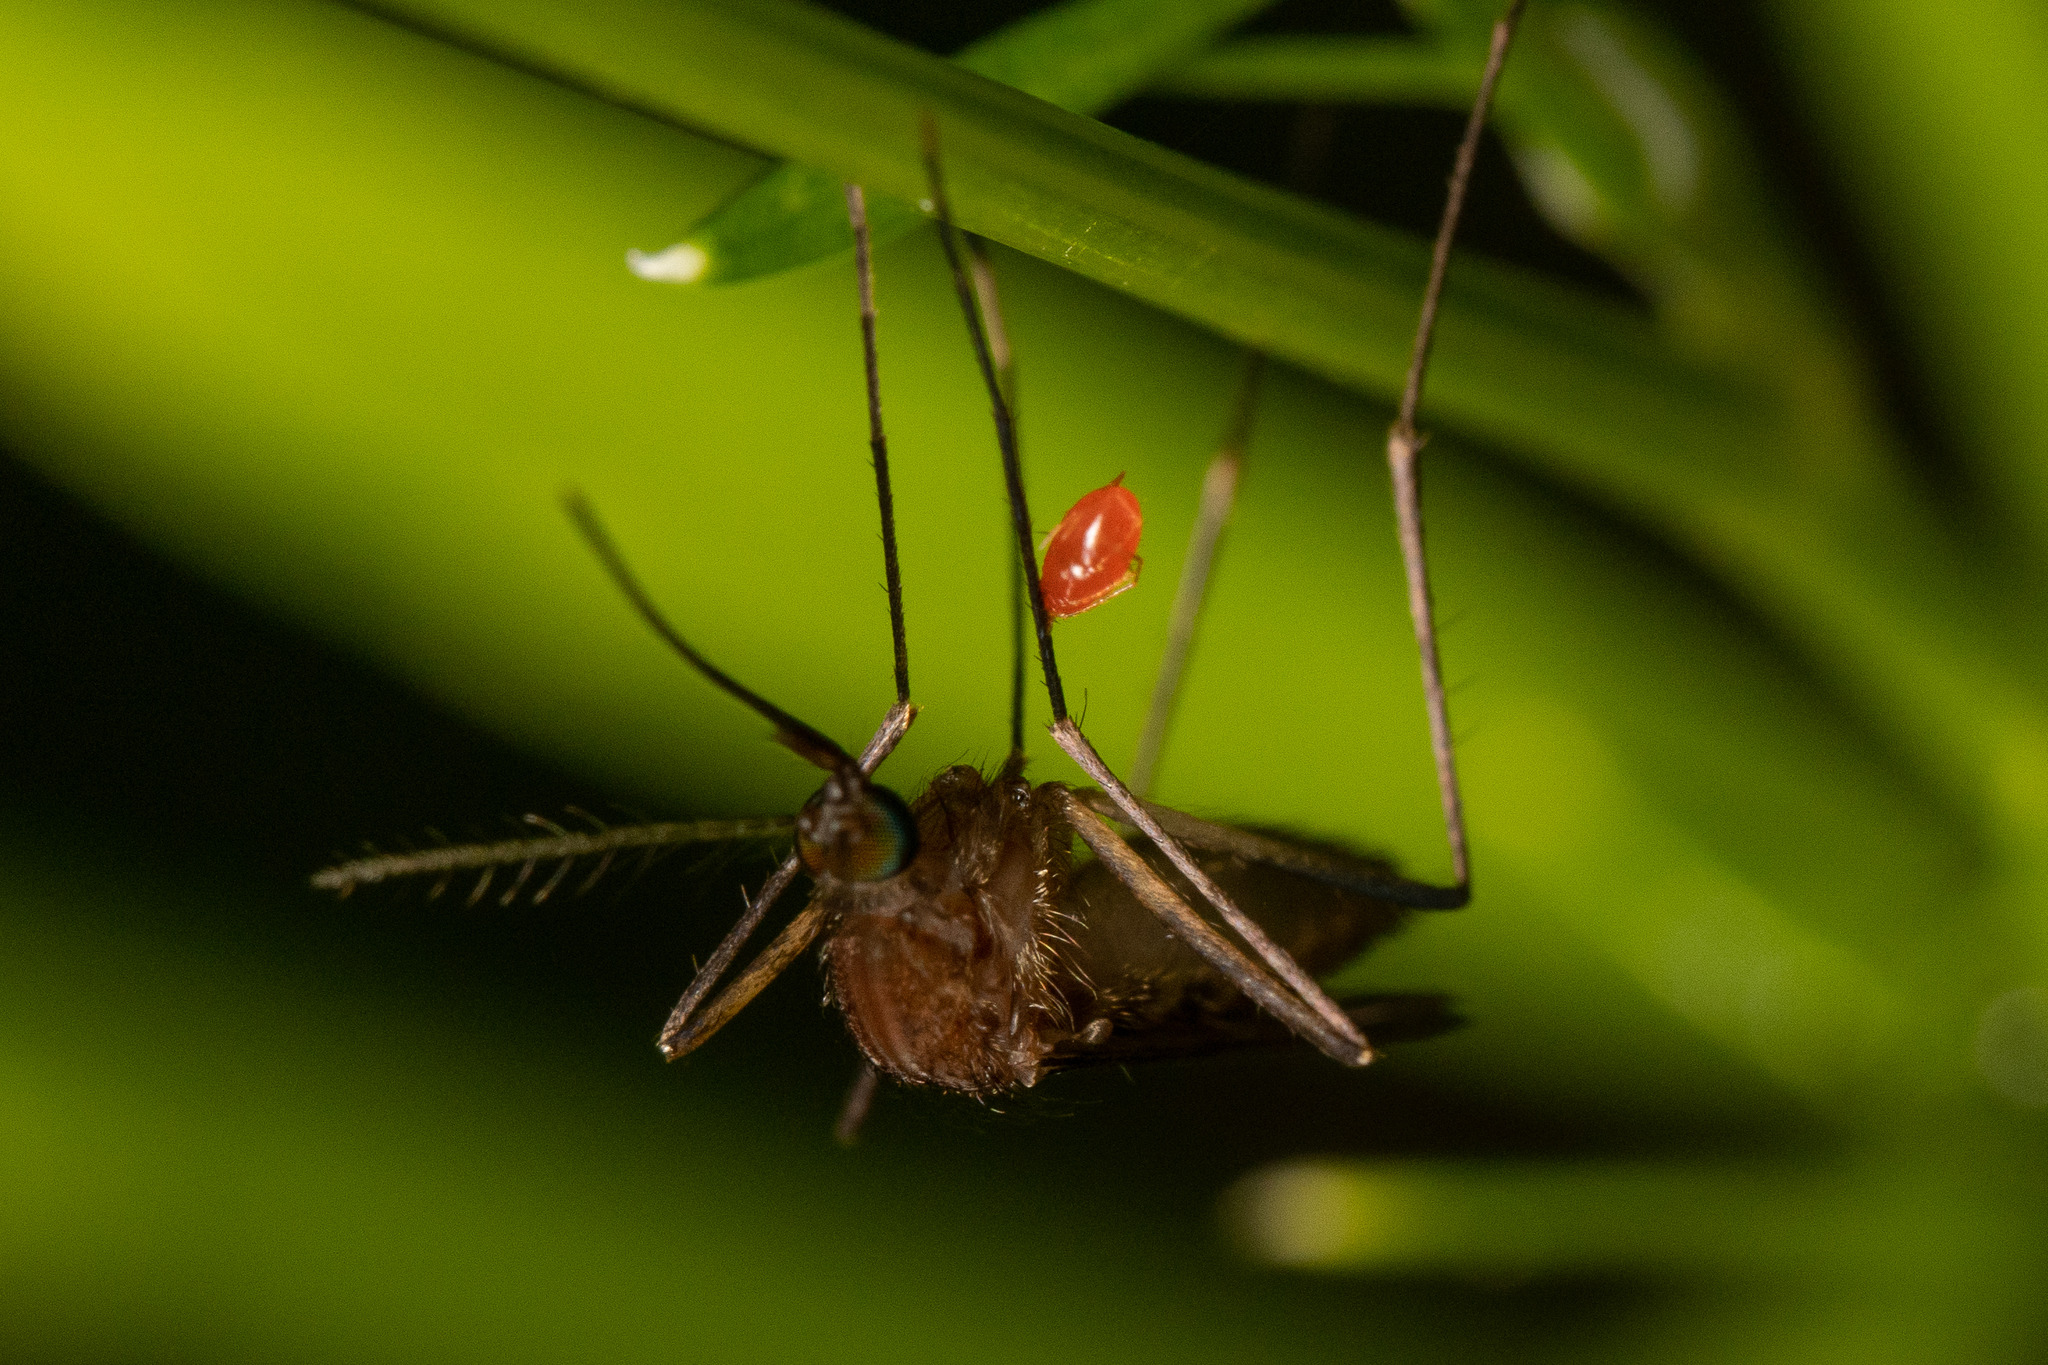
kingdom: Animalia
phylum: Arthropoda
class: Insecta
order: Diptera
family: Culicidae
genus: Culiseta
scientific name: Culiseta melanura
